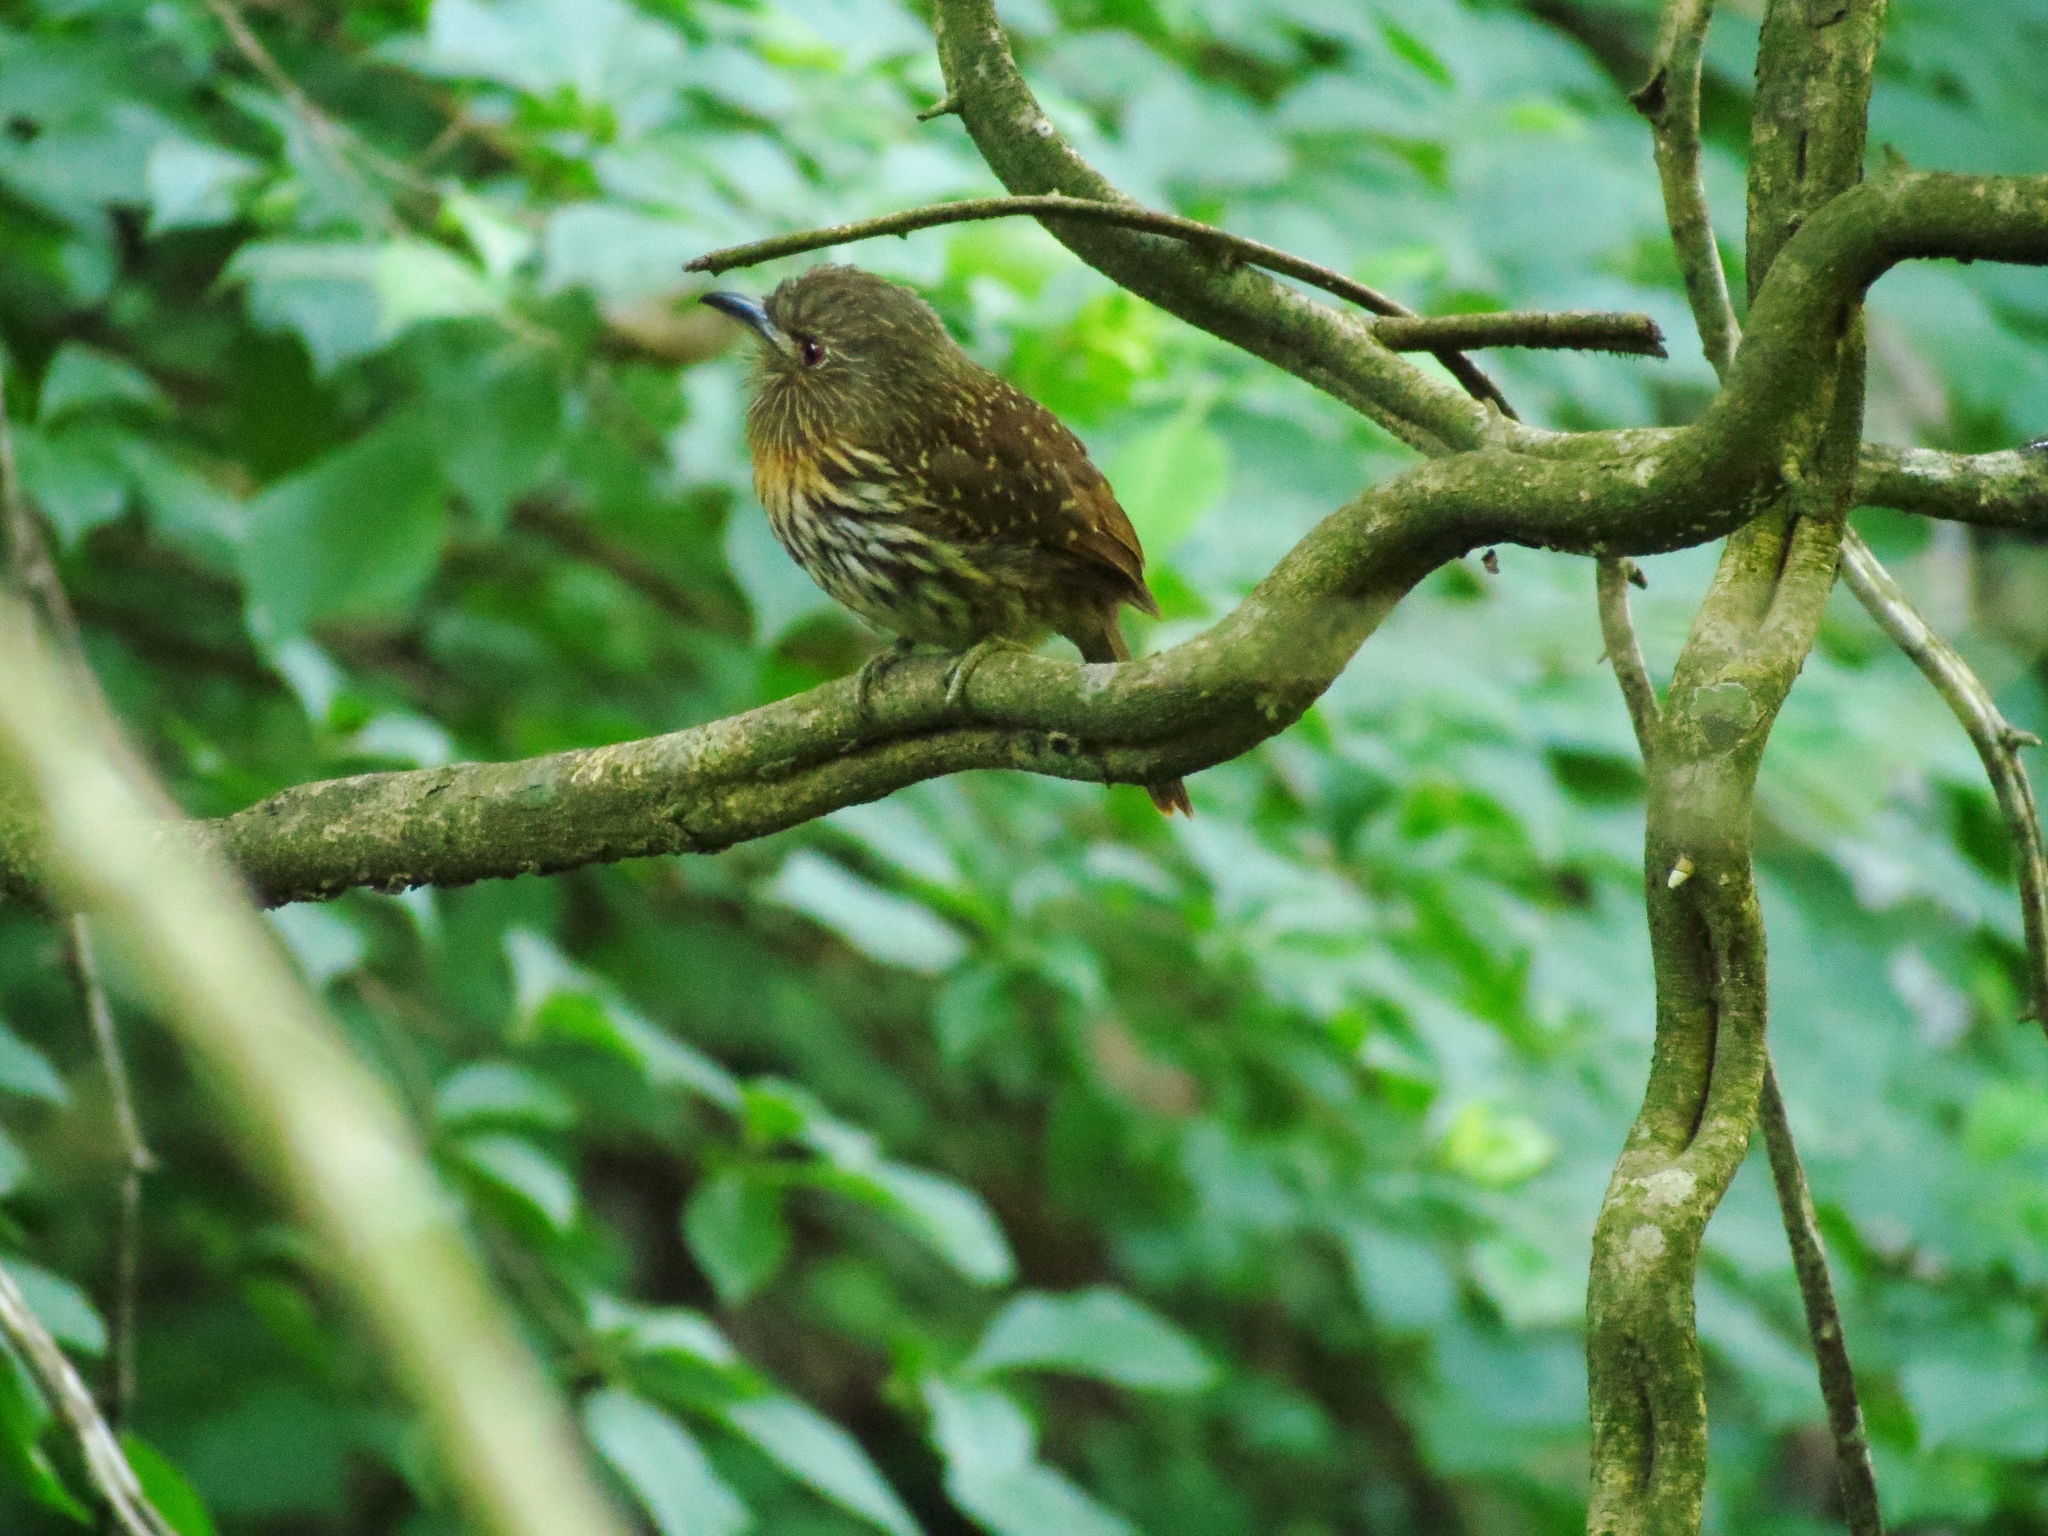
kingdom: Animalia
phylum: Chordata
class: Aves
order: Piciformes
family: Bucconidae
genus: Malacoptila
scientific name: Malacoptila panamensis
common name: White-whiskered puffbird
